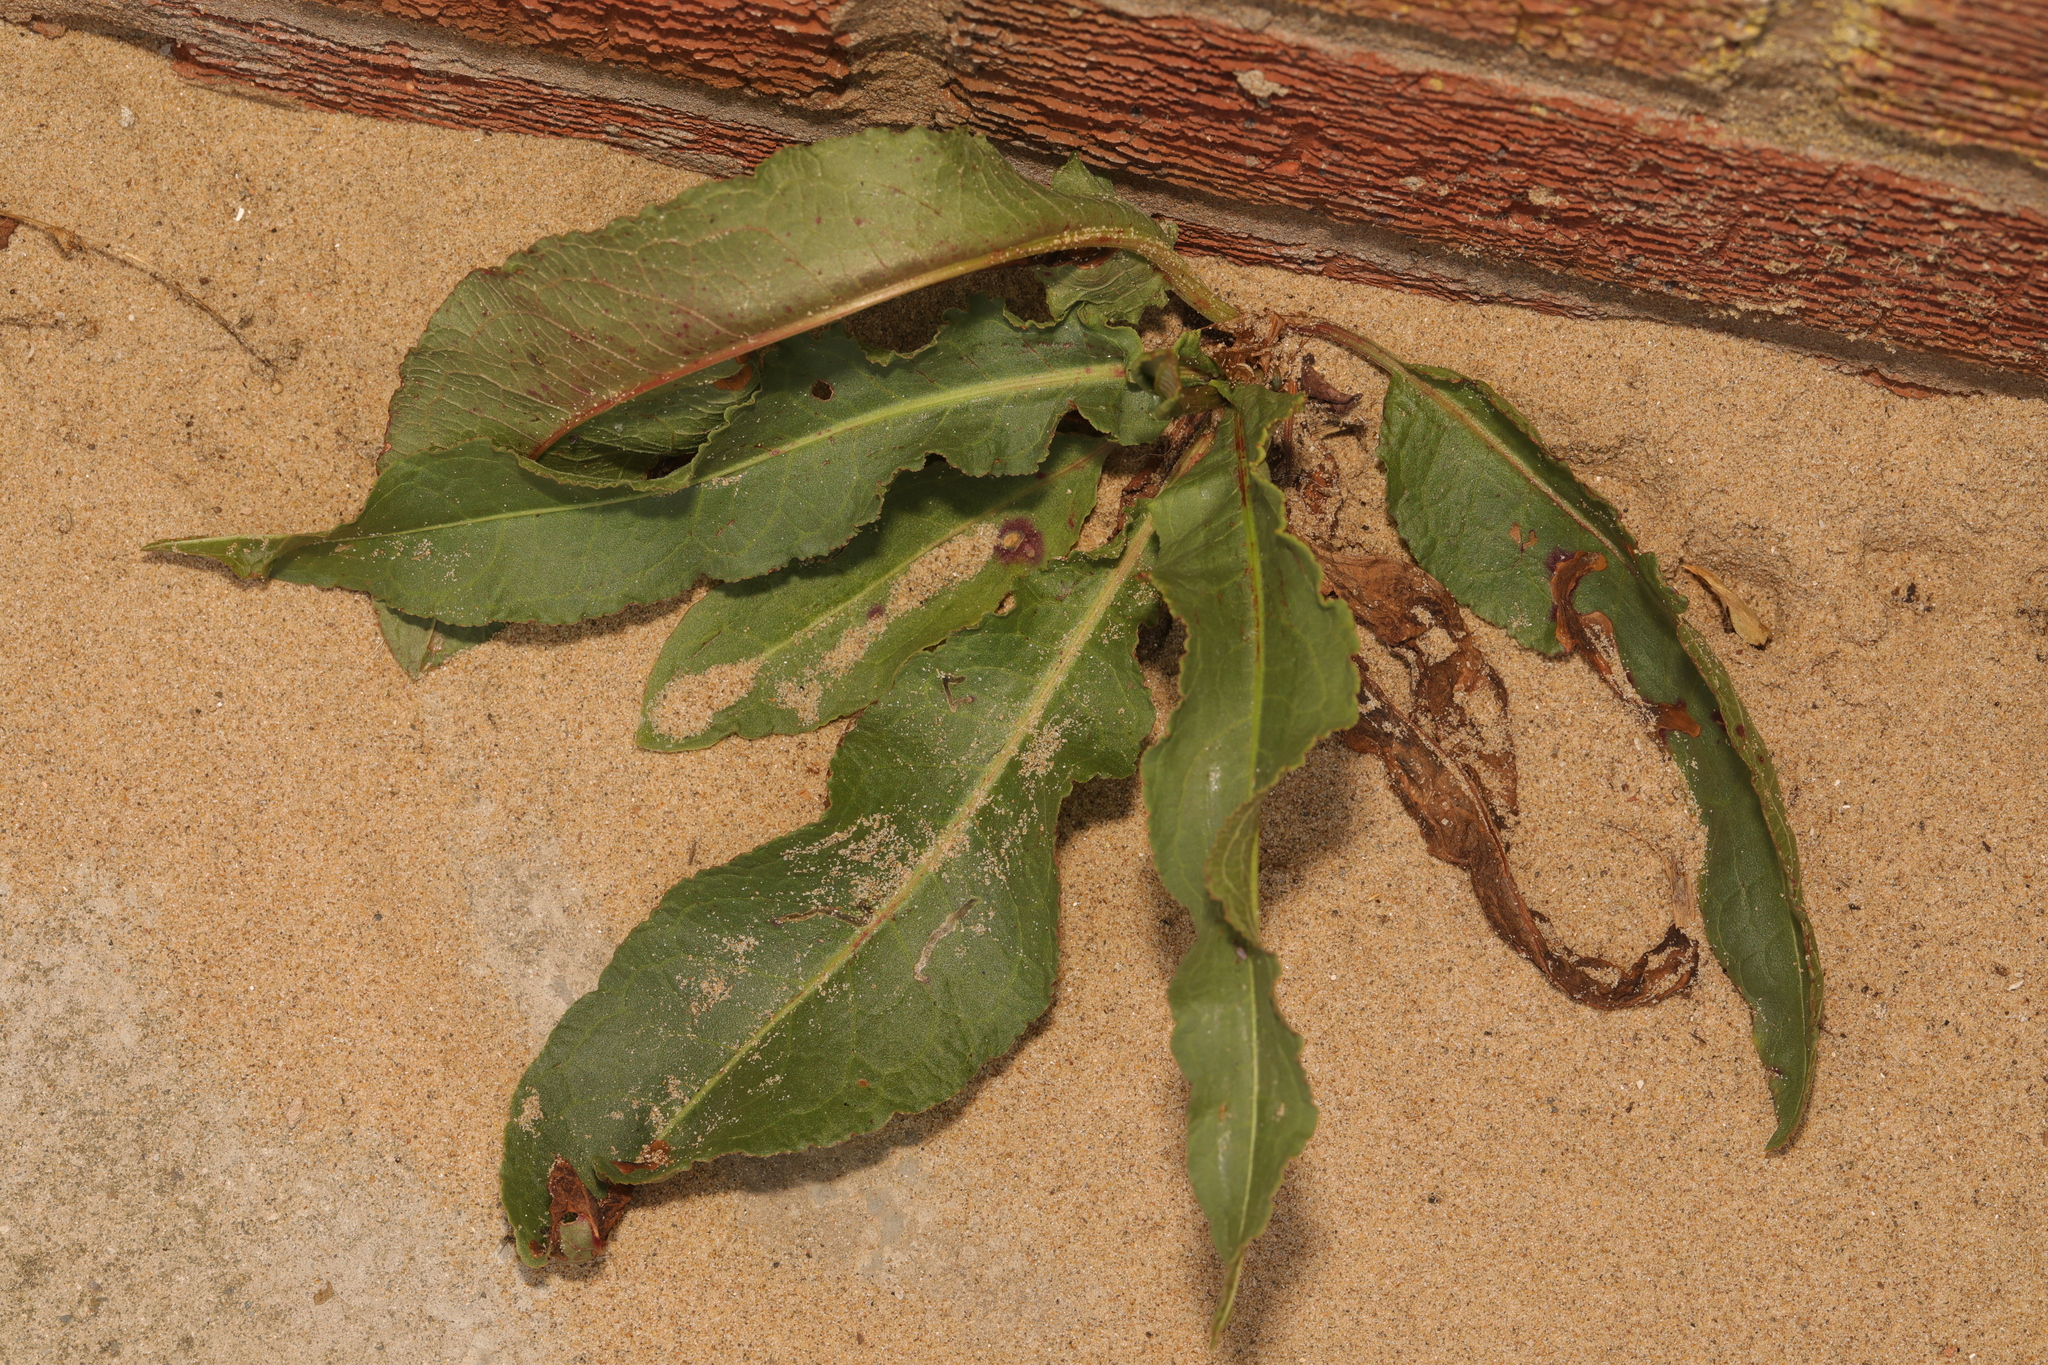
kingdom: Plantae
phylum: Tracheophyta
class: Magnoliopsida
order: Caryophyllales
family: Polygonaceae
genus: Rumex
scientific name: Rumex crispus
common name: Curled dock
